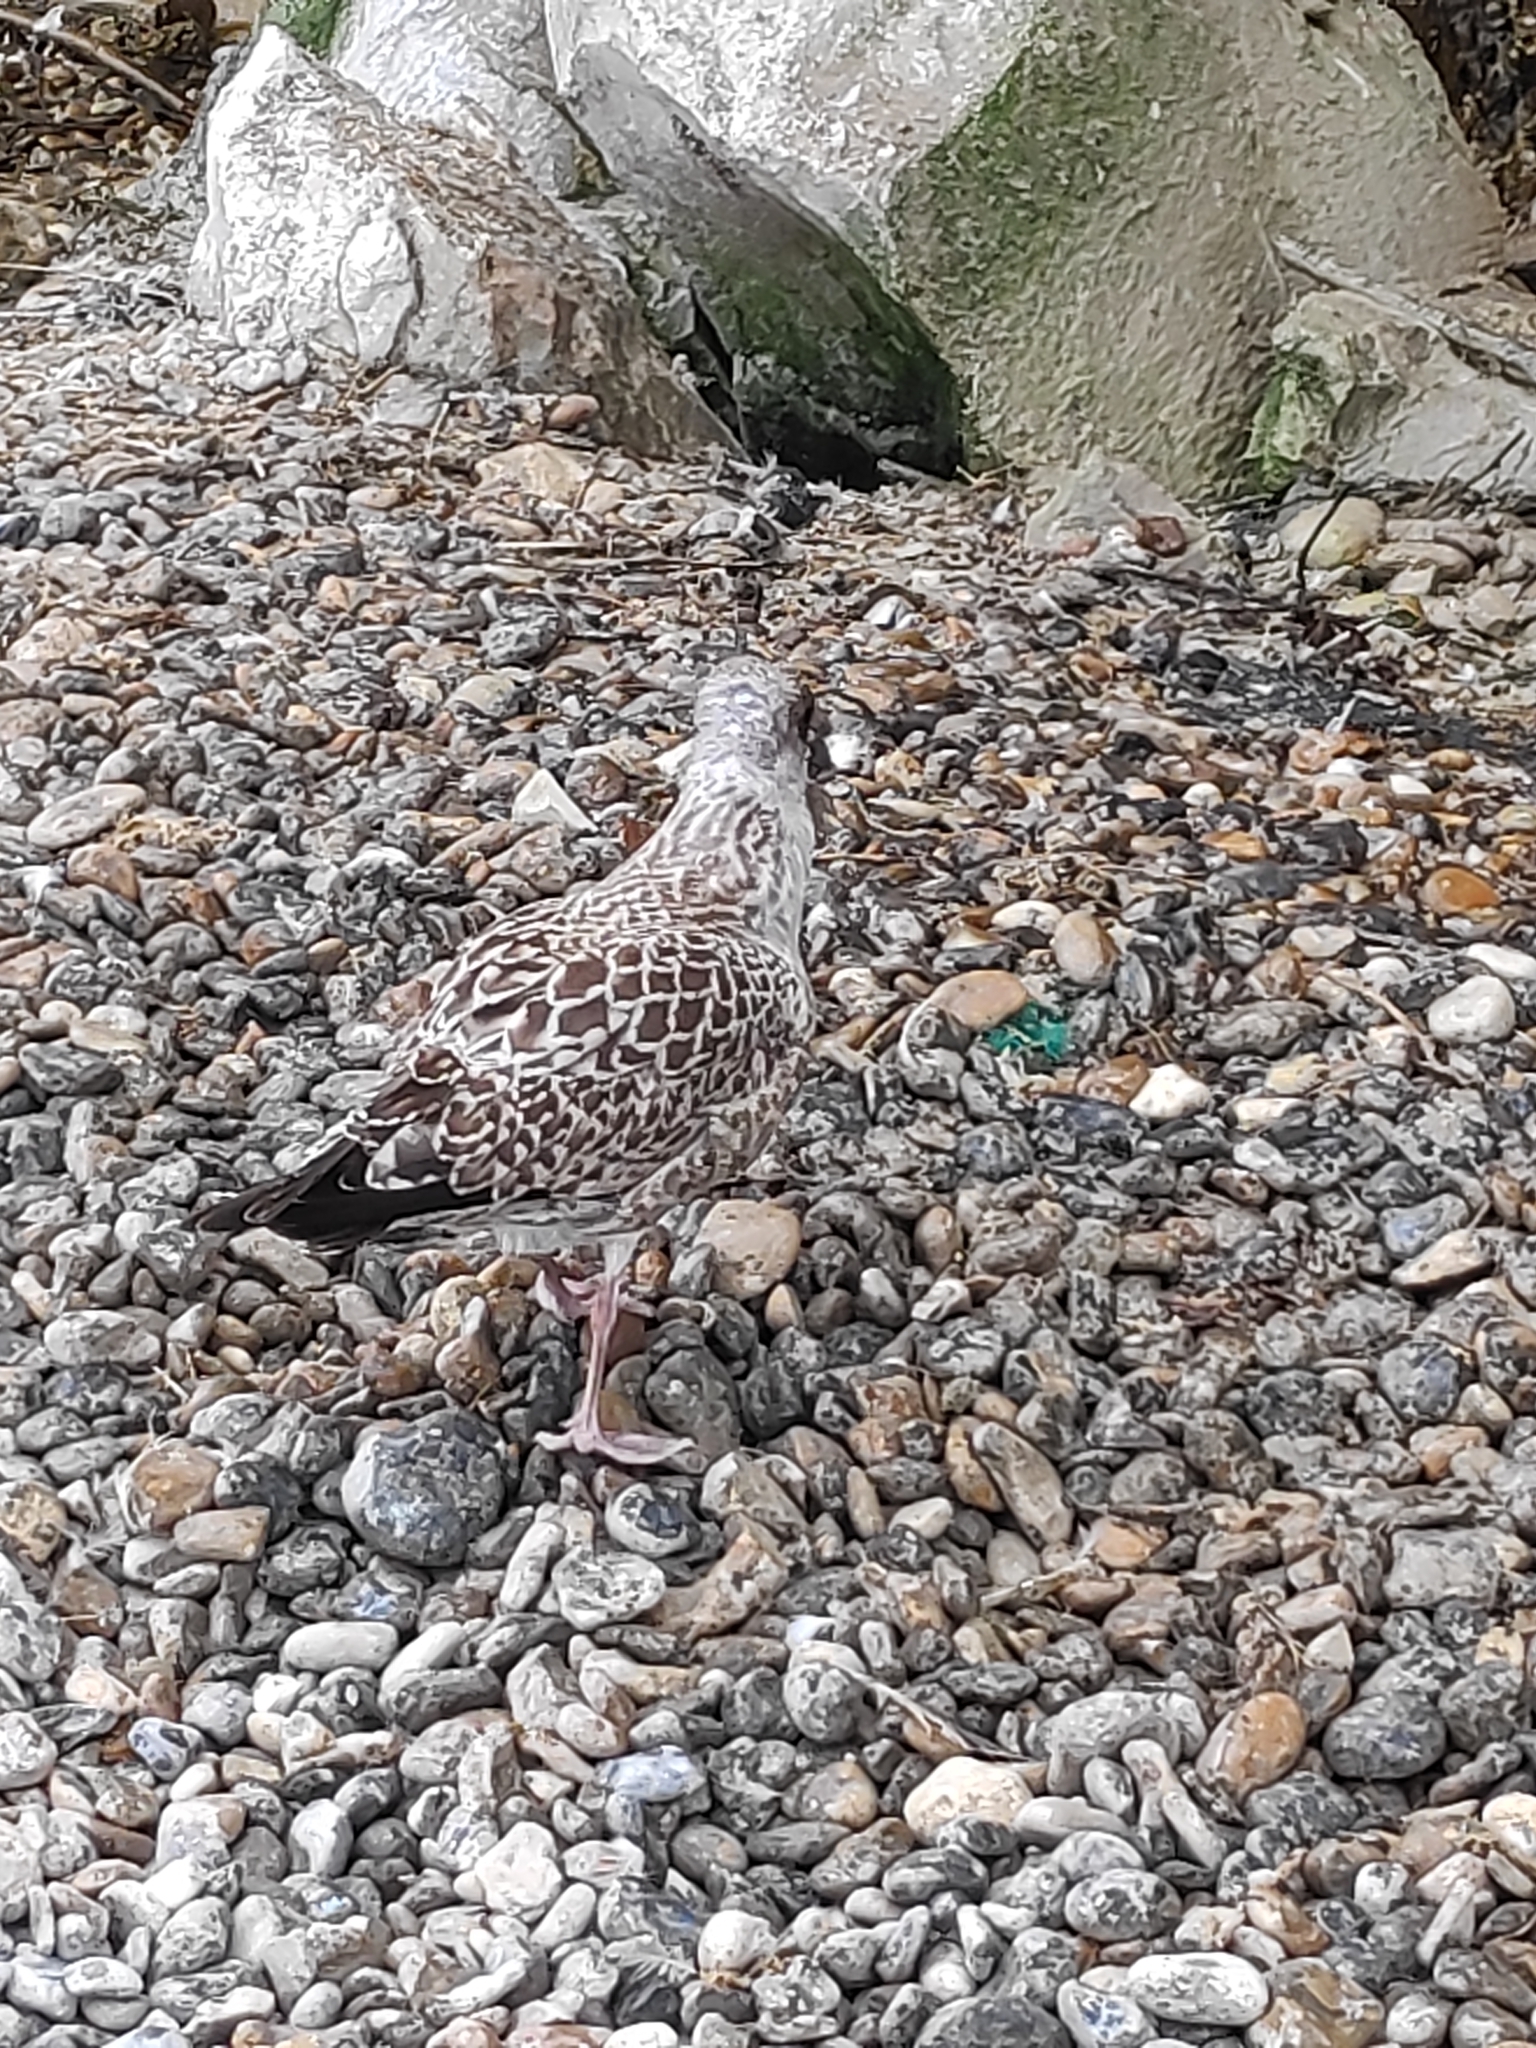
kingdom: Animalia
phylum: Chordata
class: Aves
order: Charadriiformes
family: Laridae
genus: Larus
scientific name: Larus argentatus
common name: Herring gull
